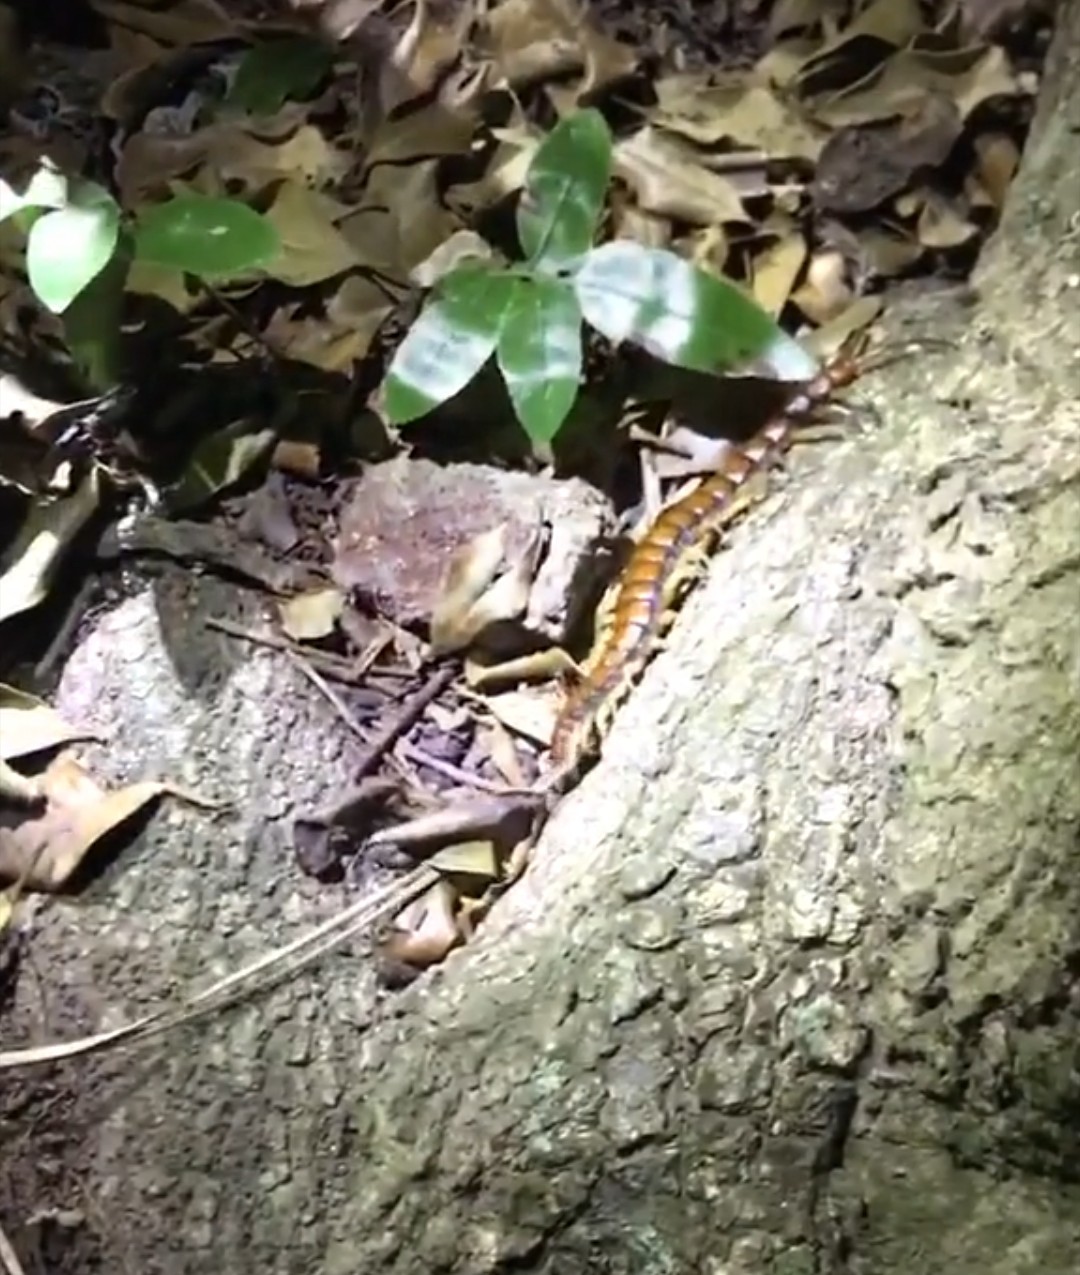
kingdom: Animalia
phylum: Arthropoda
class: Chilopoda
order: Scolopendromorpha
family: Scolopendridae
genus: Cormocephalus
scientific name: Cormocephalus rubriceps
